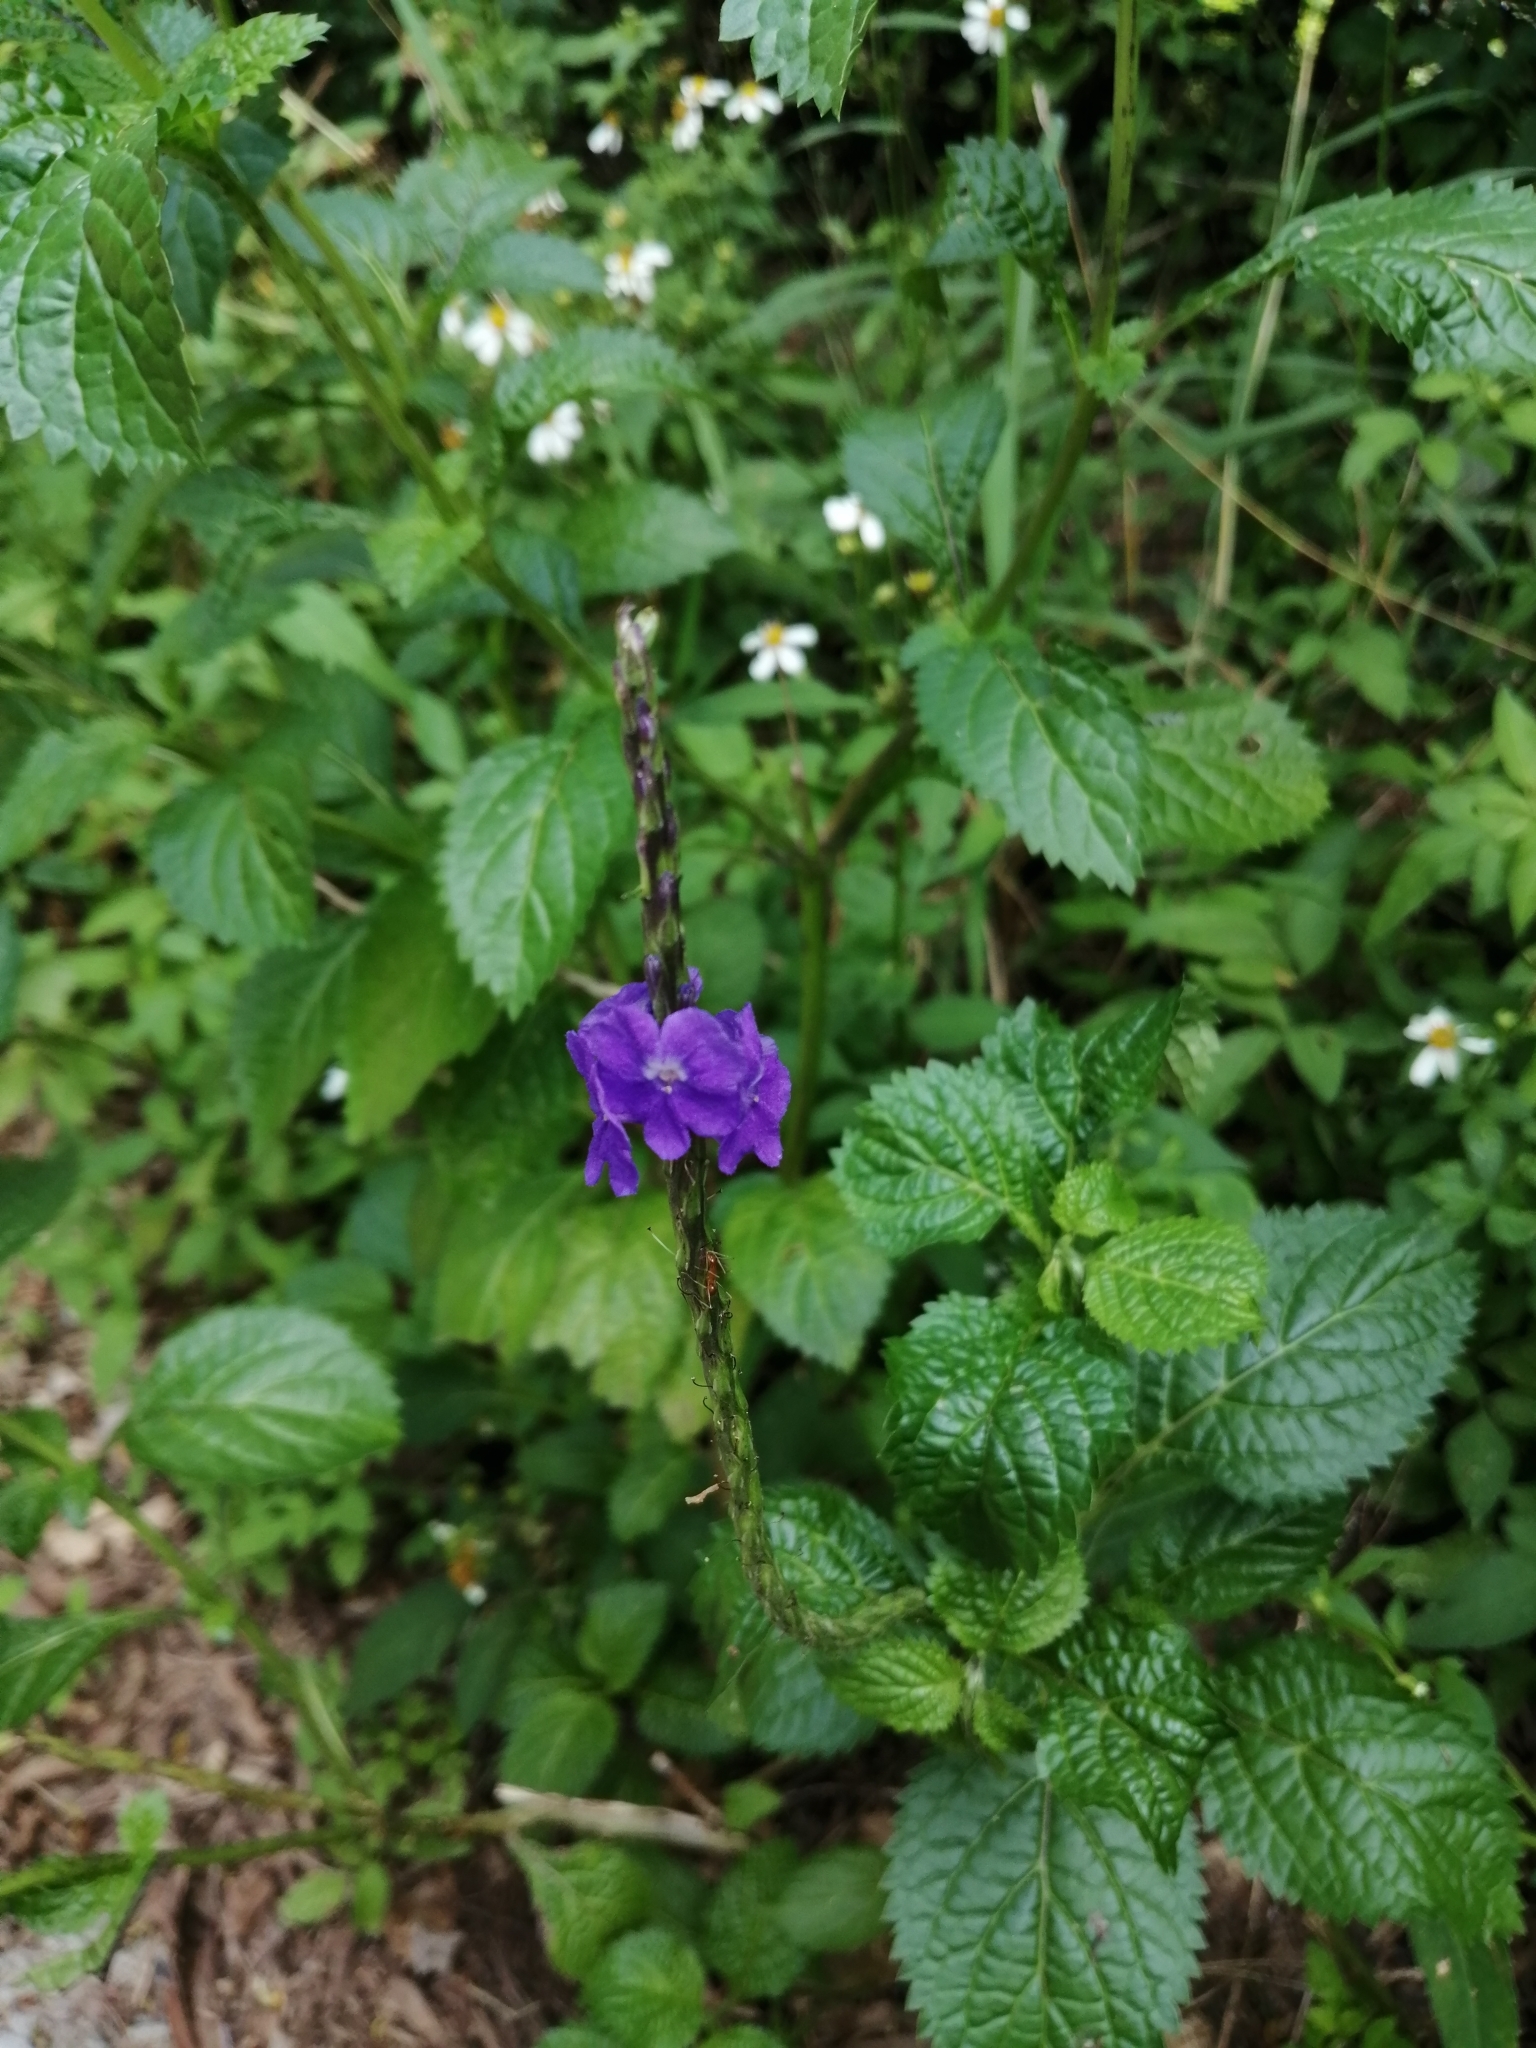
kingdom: Plantae
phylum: Tracheophyta
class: Magnoliopsida
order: Lamiales
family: Verbenaceae
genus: Stachytarpheta
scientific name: Stachytarpheta urticifolia
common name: Nettleleaf velvetberry
